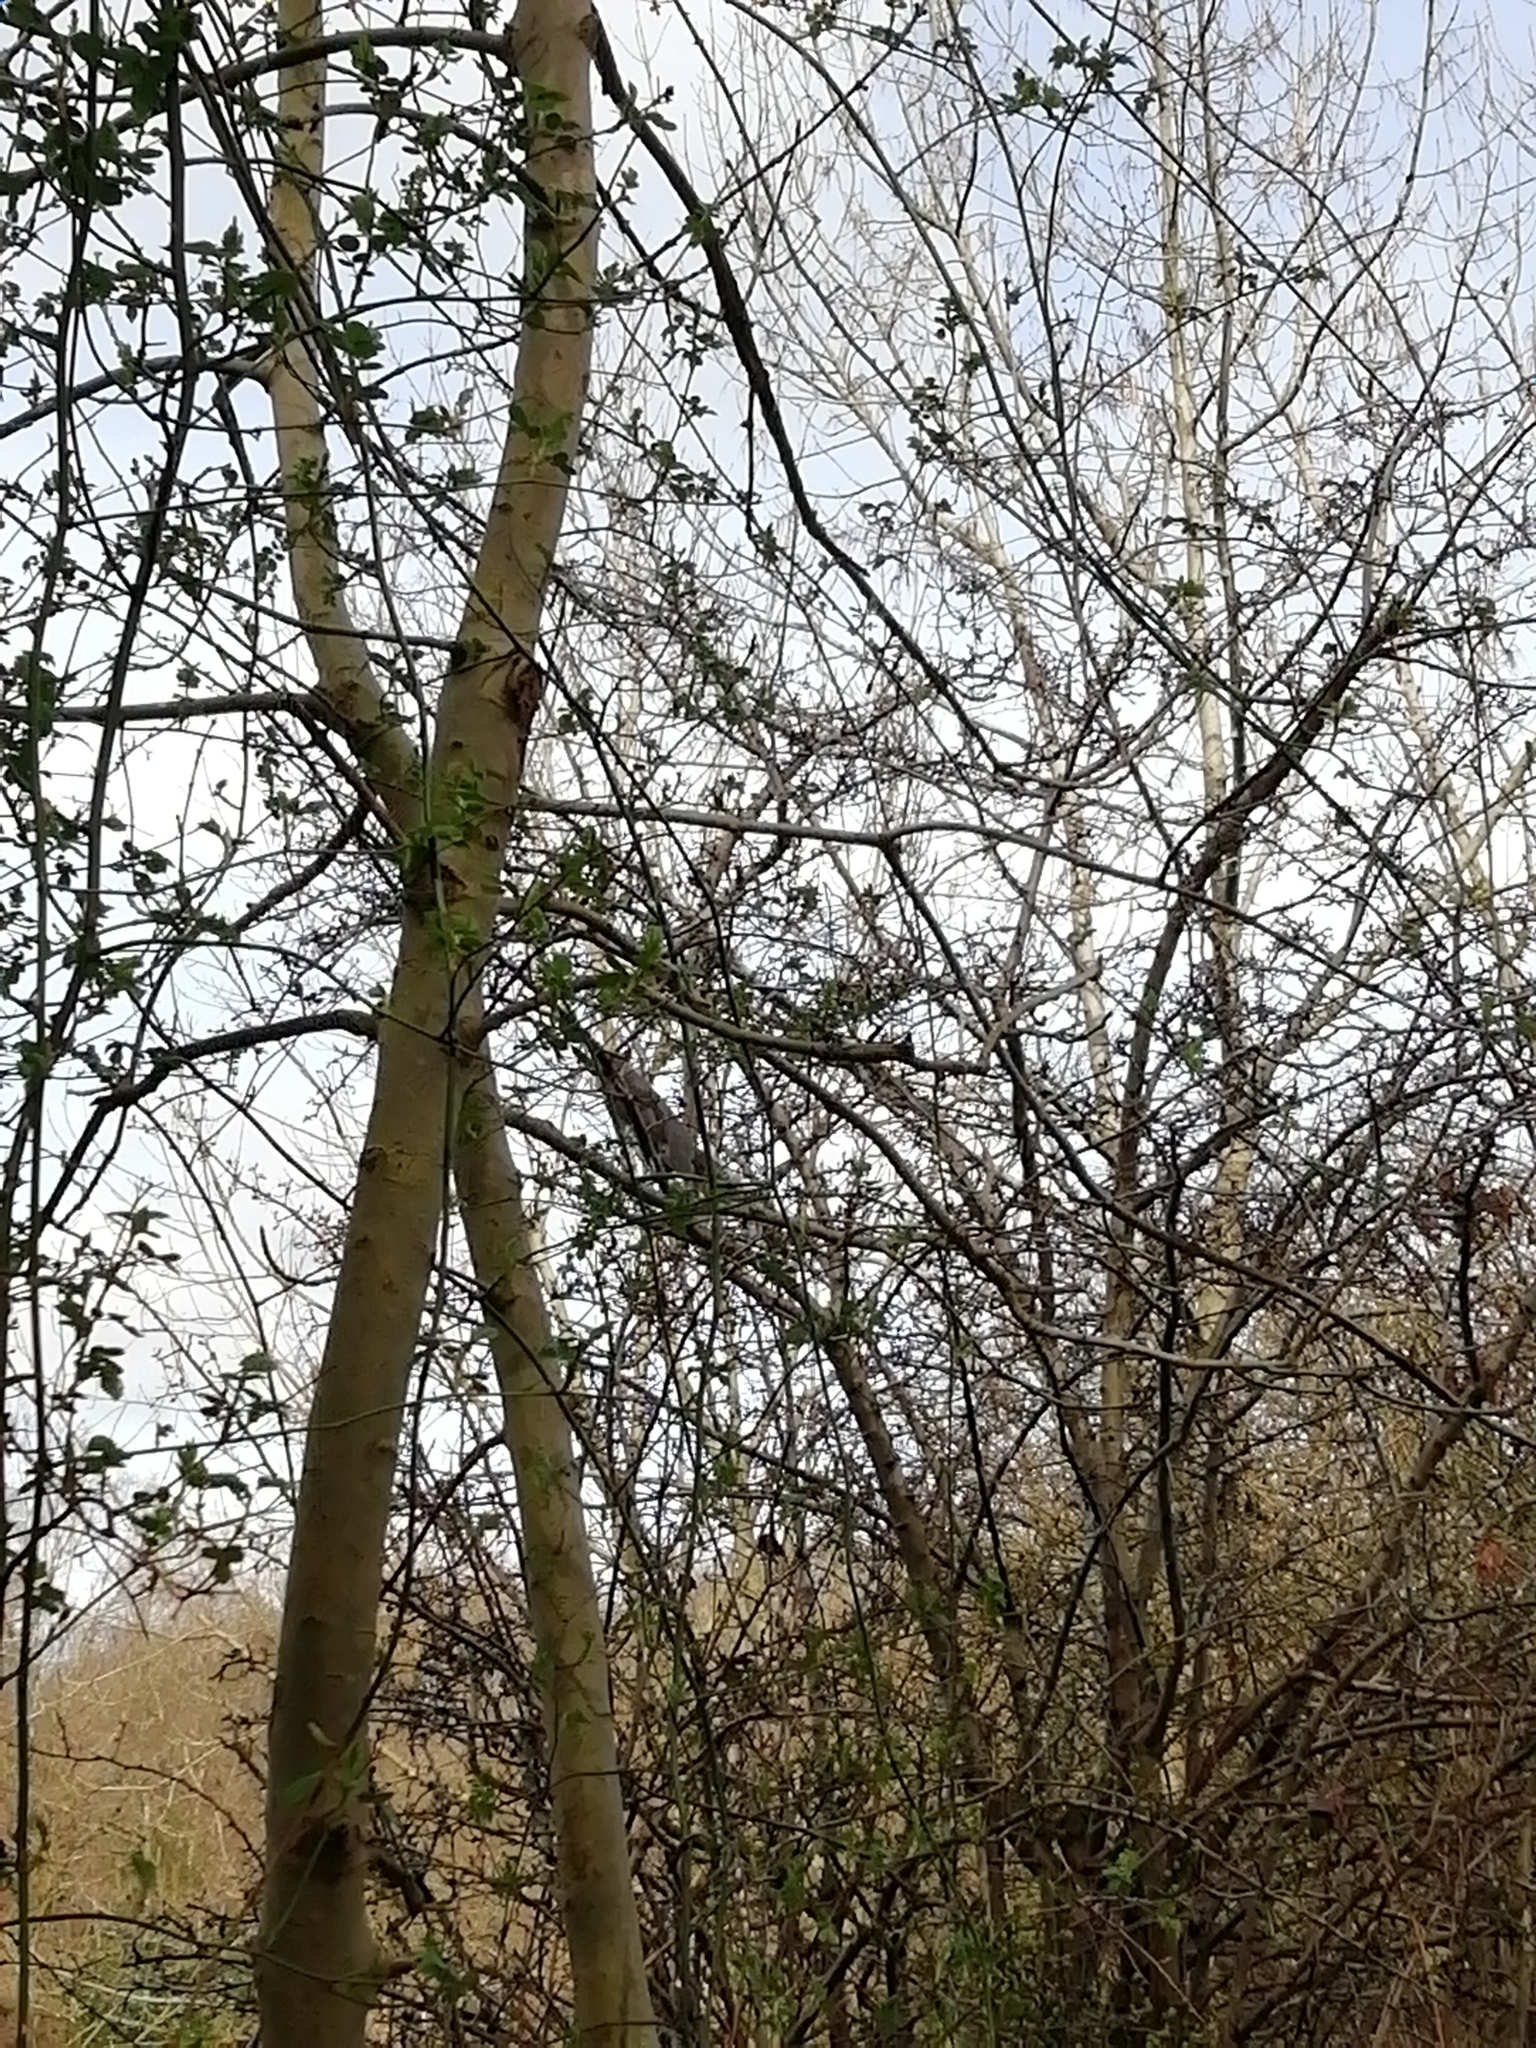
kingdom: Animalia
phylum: Chordata
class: Mammalia
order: Rodentia
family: Sciuridae
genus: Sciurus
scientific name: Sciurus carolinensis
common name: Eastern gray squirrel
